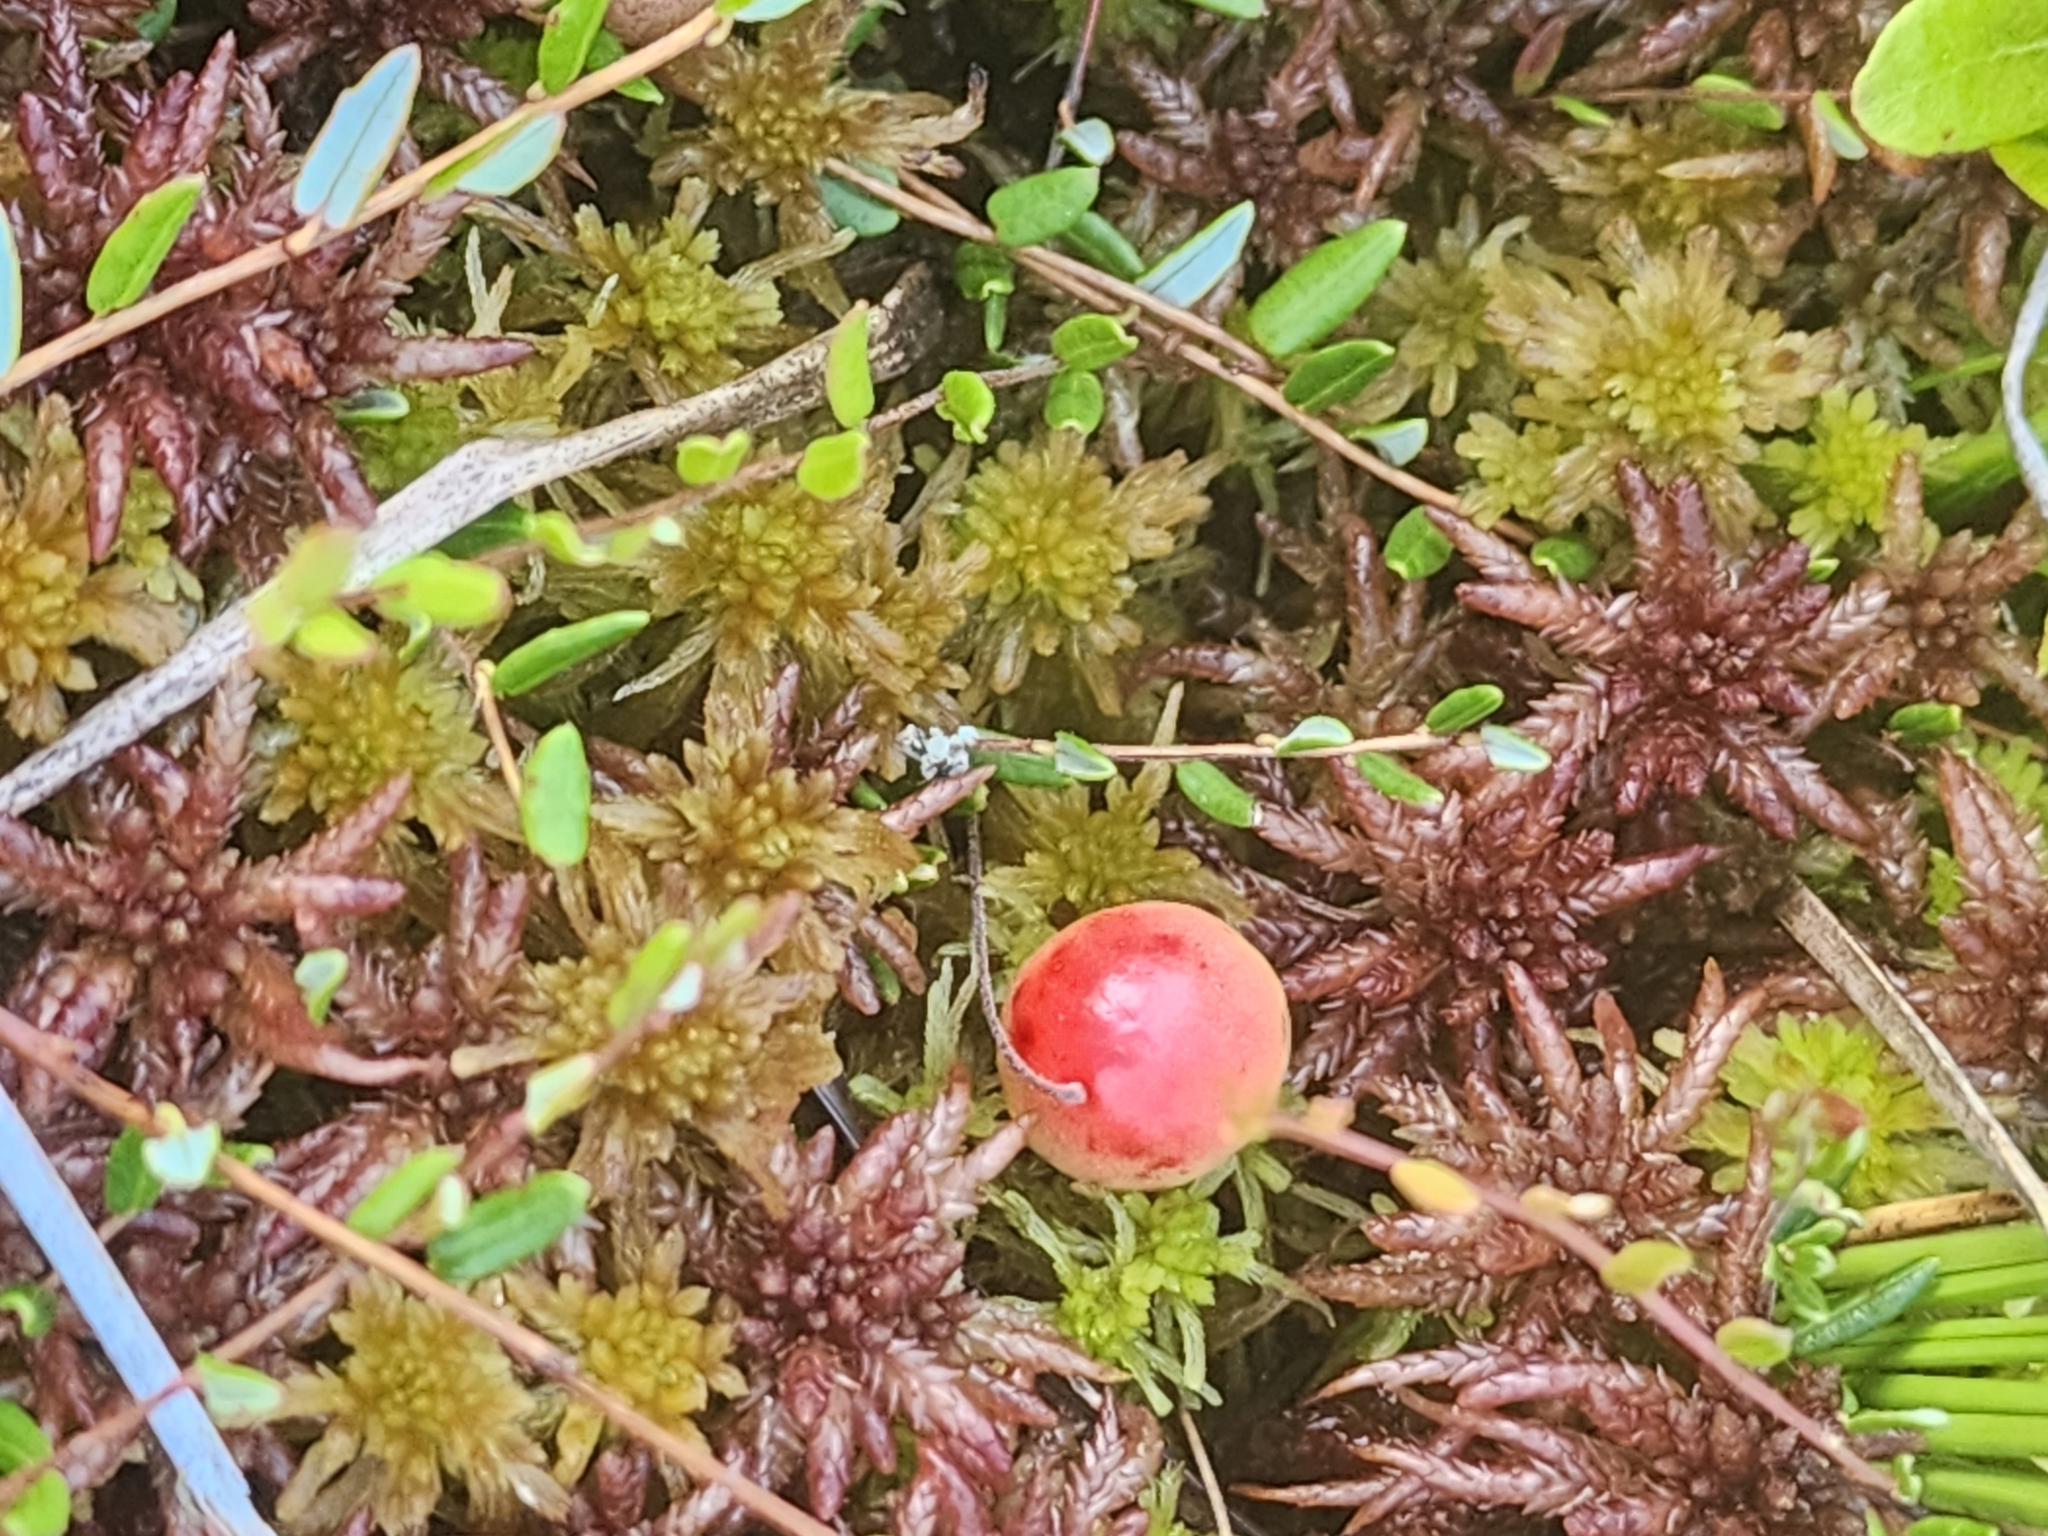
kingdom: Plantae
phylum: Tracheophyta
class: Magnoliopsida
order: Ericales
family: Ericaceae
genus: Vaccinium
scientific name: Vaccinium oxycoccos
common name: Cranberry
